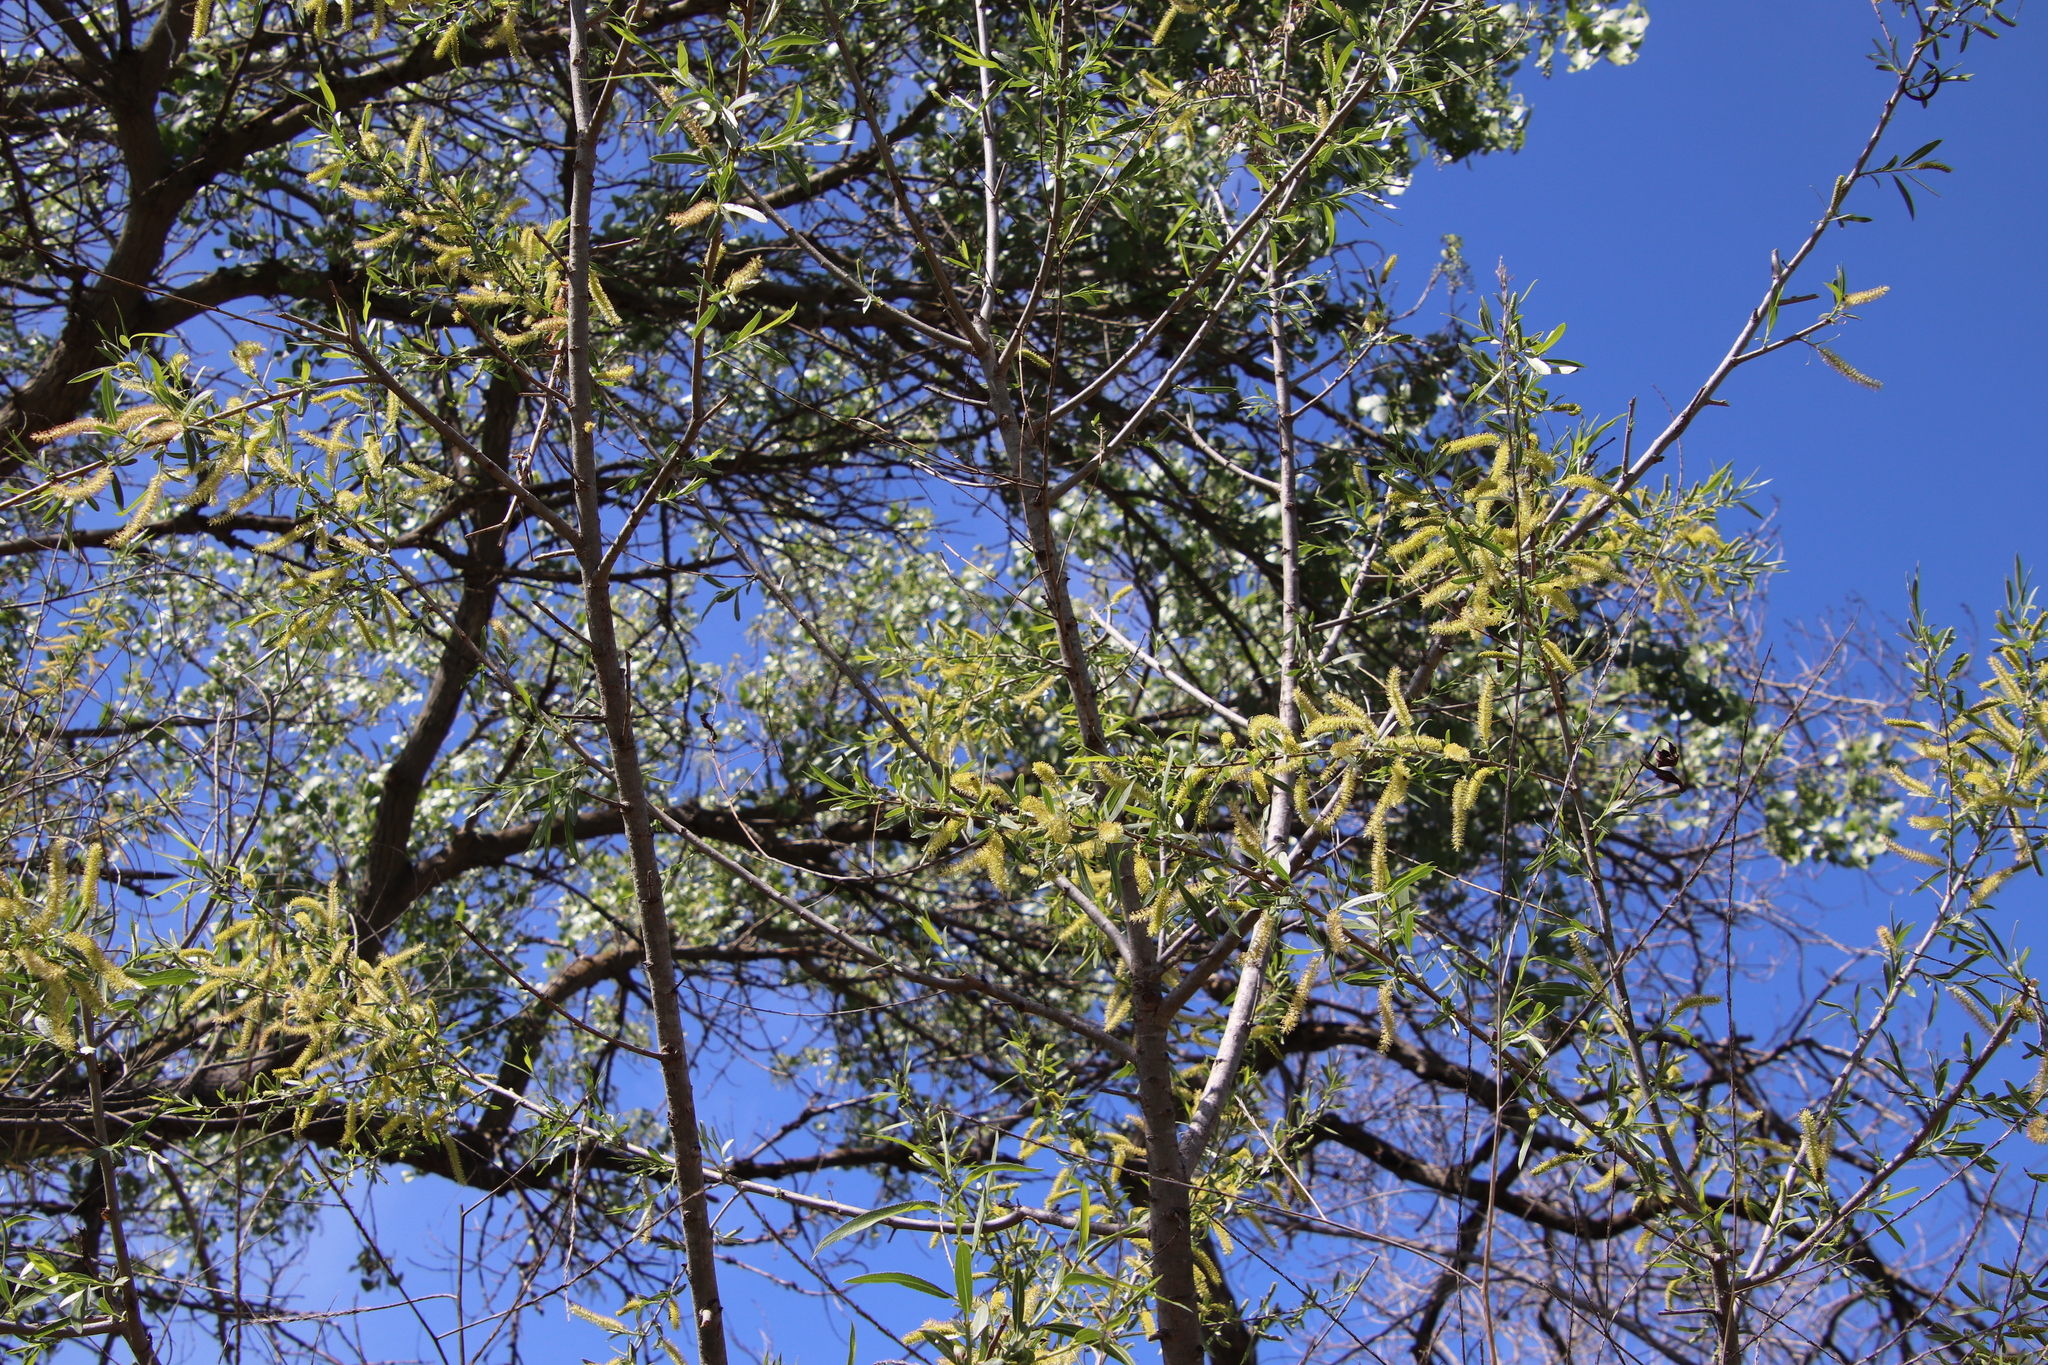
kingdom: Plantae
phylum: Tracheophyta
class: Magnoliopsida
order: Malpighiales
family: Salicaceae
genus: Salix
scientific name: Salix gooddingii
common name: Goodding's willow
